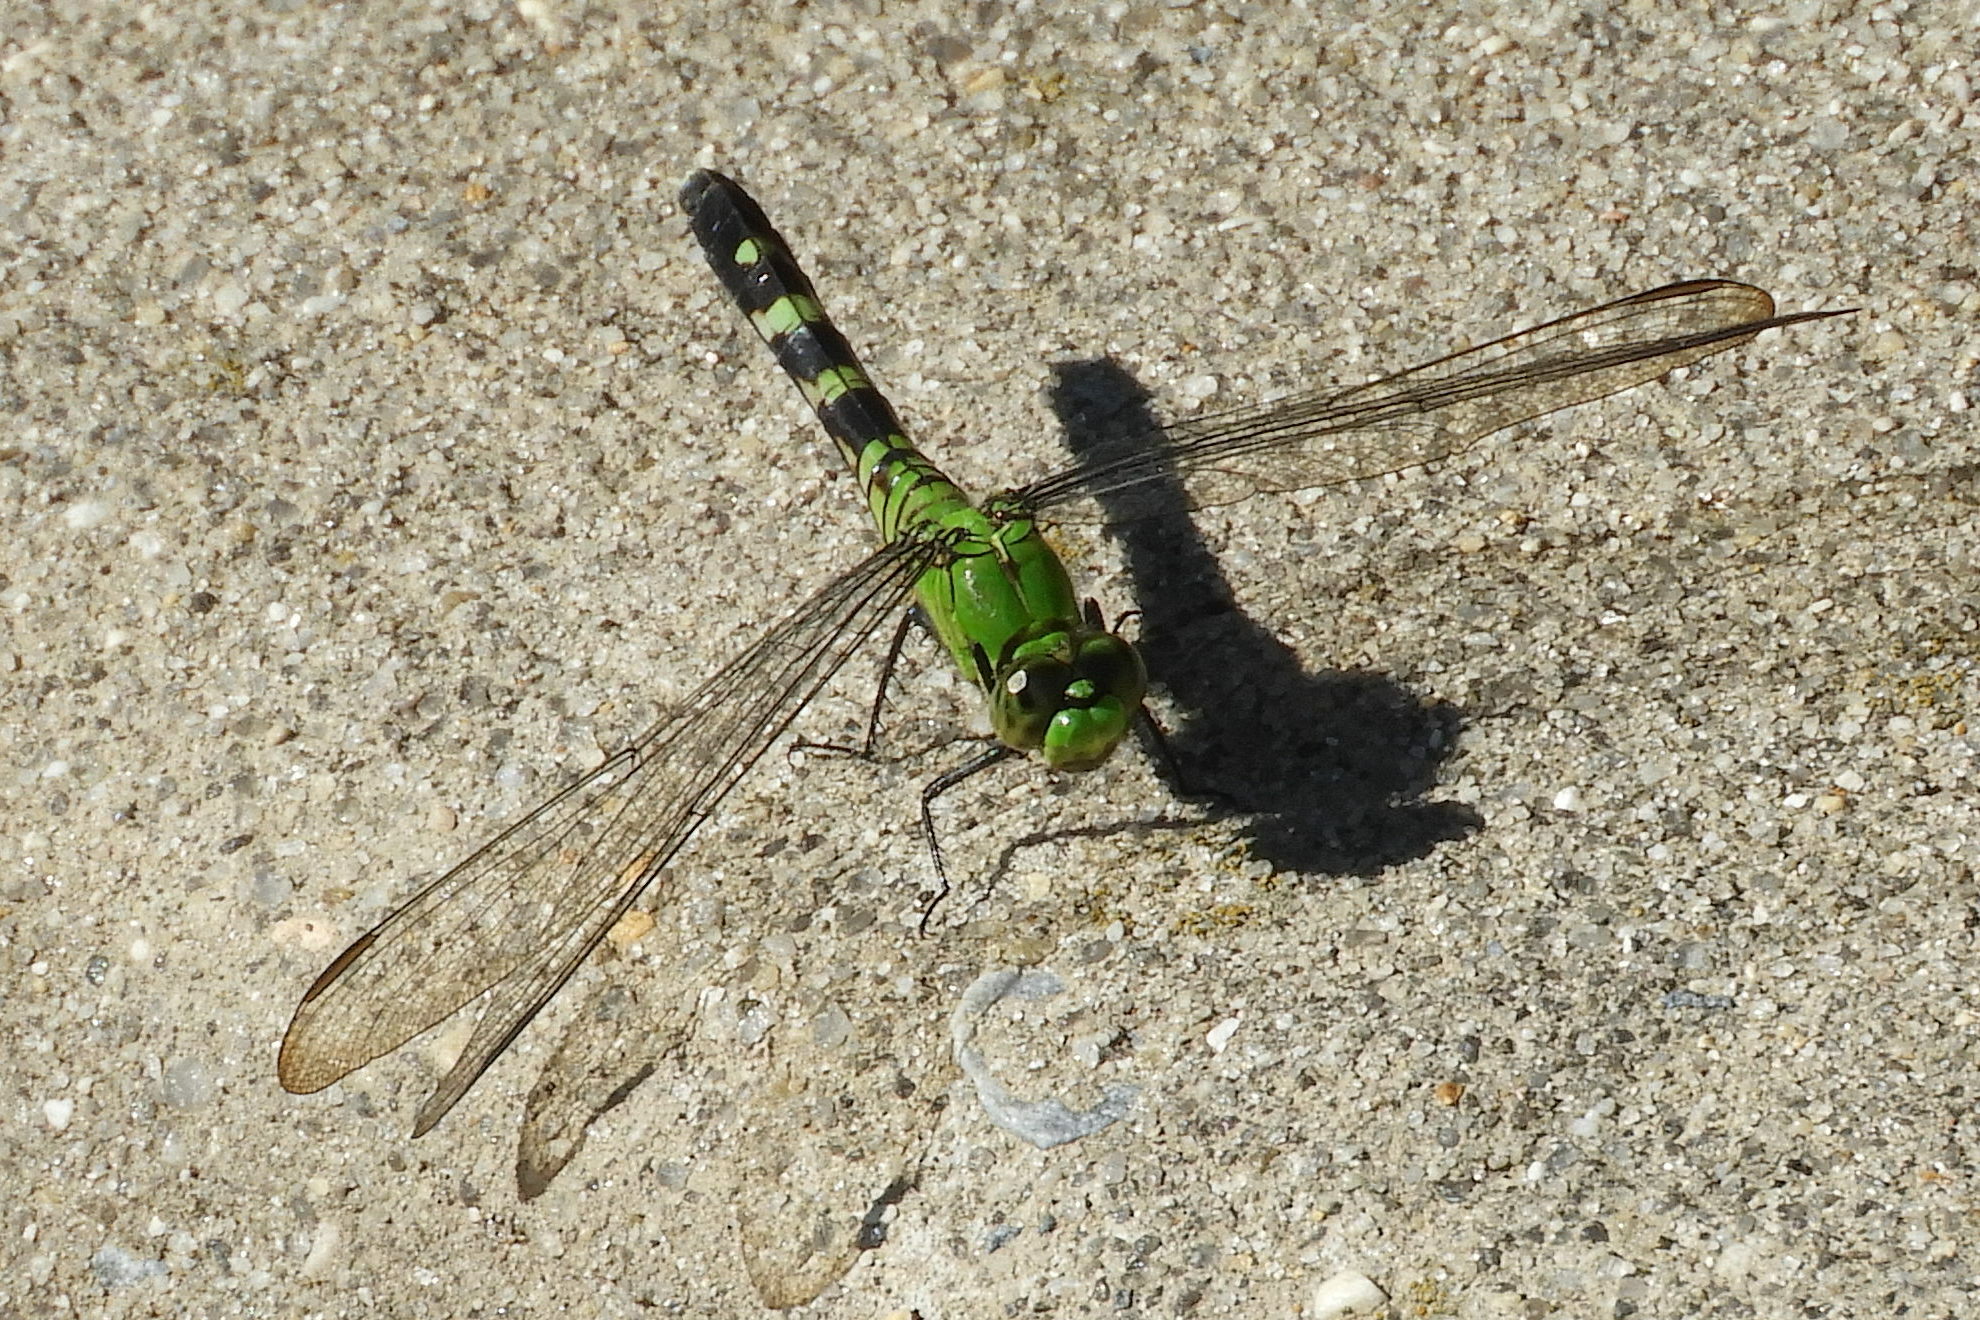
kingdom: Animalia
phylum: Arthropoda
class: Insecta
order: Odonata
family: Libellulidae
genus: Erythemis
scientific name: Erythemis simplicicollis
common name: Eastern pondhawk
